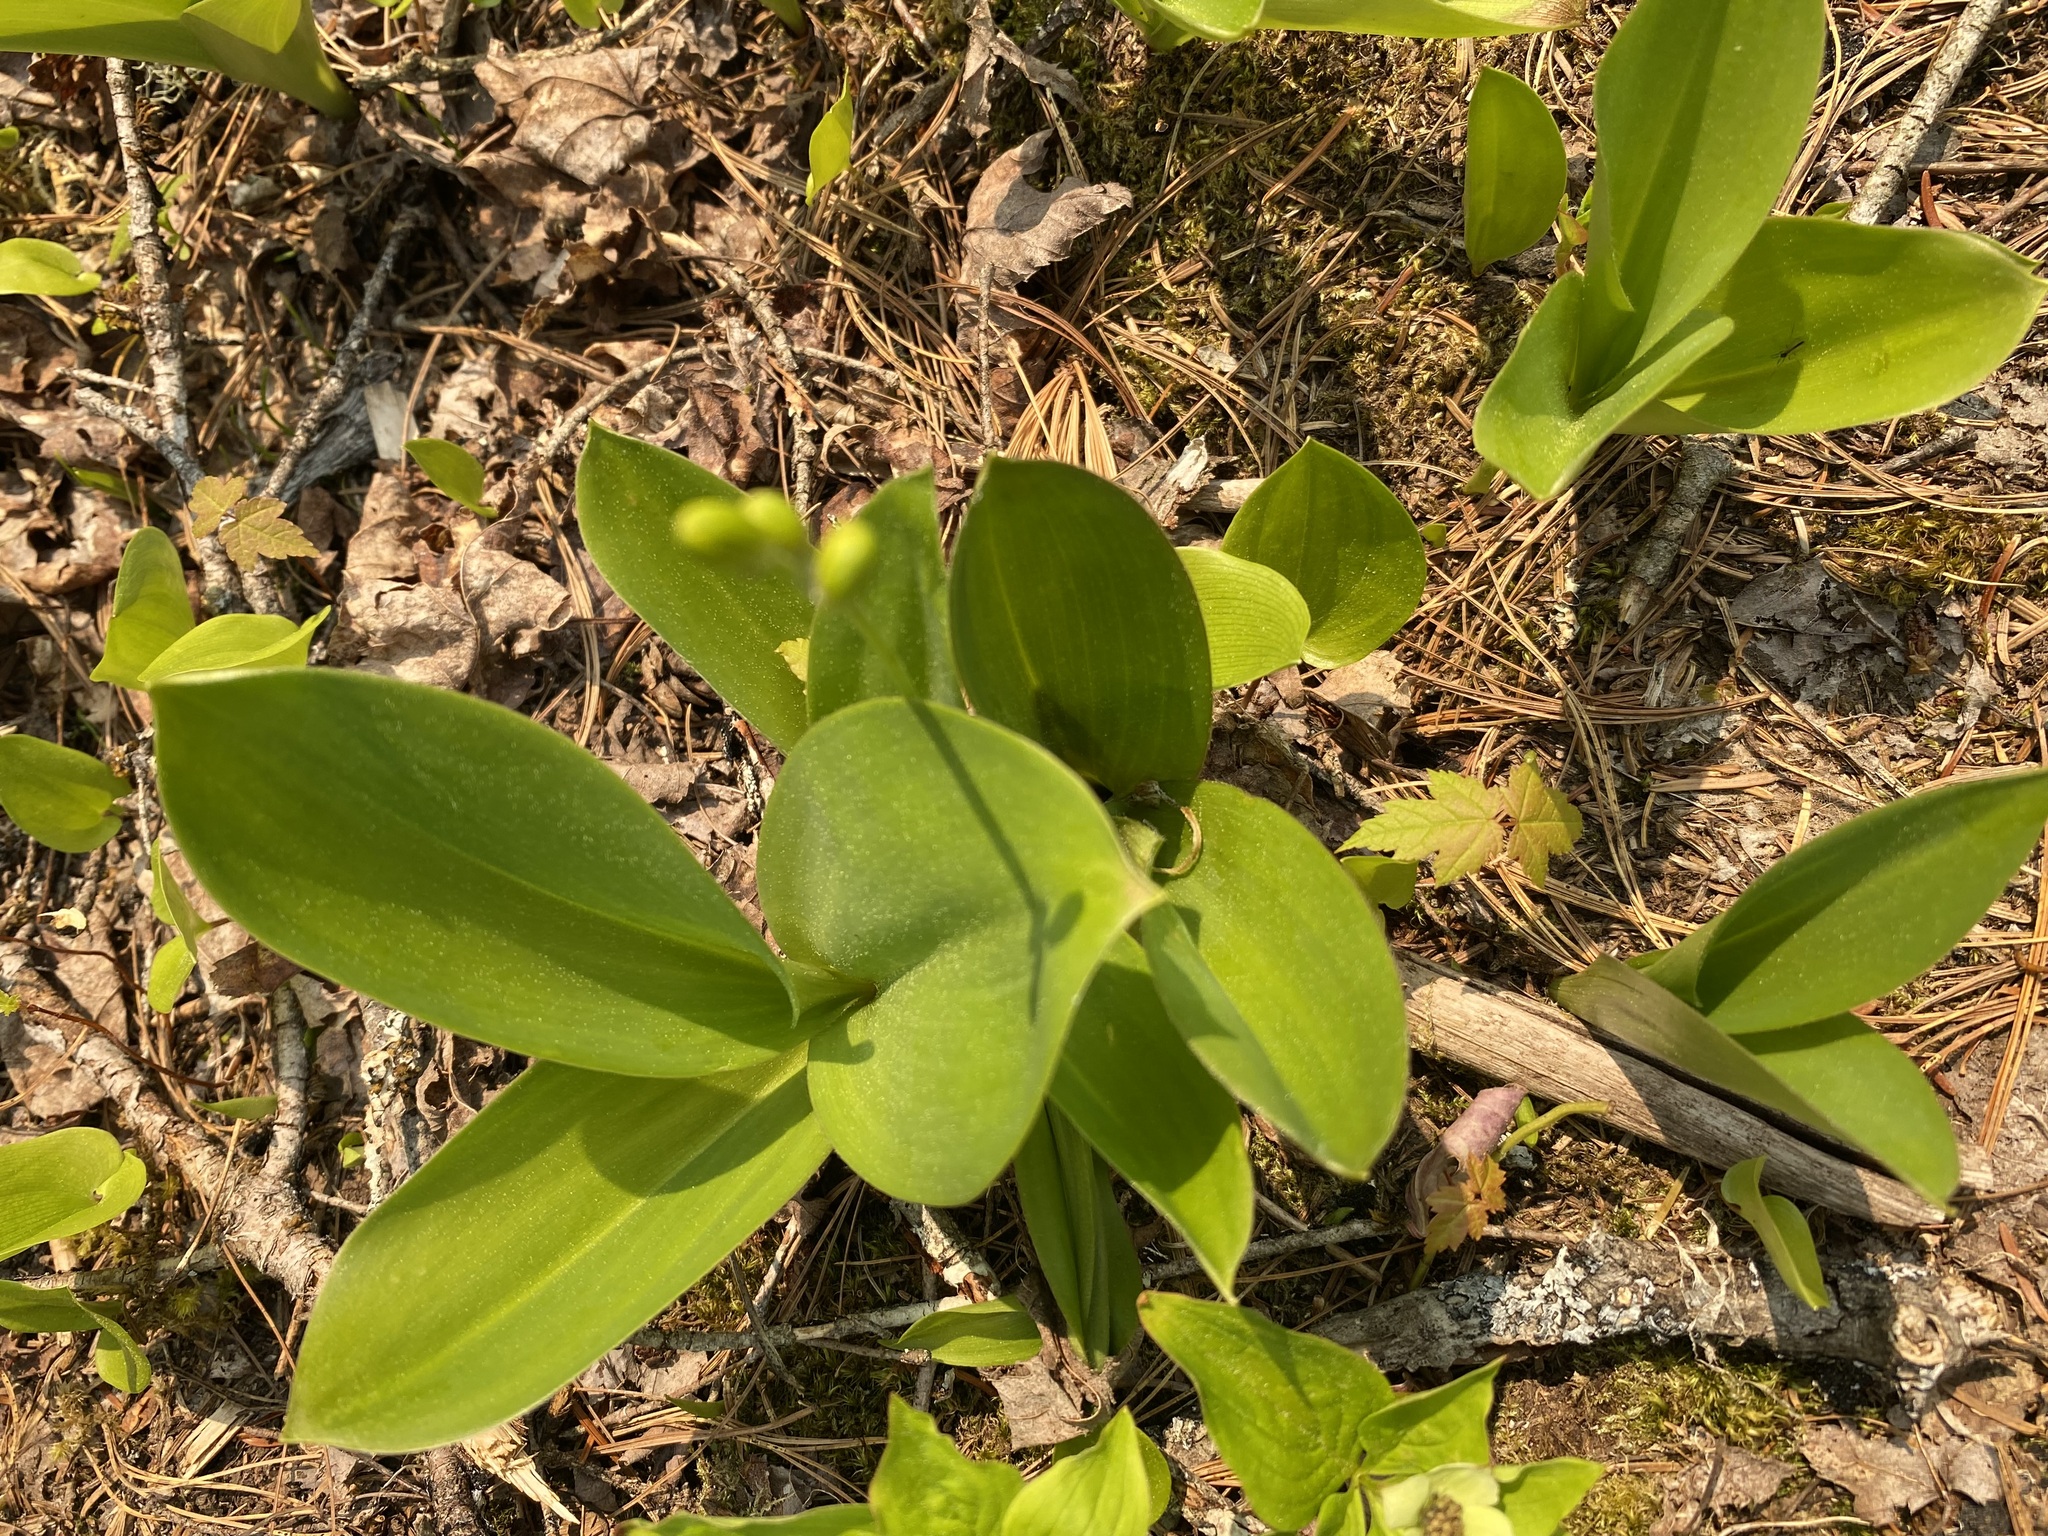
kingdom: Plantae
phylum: Tracheophyta
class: Liliopsida
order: Liliales
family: Liliaceae
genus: Clintonia
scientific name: Clintonia borealis
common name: Yellow clintonia
